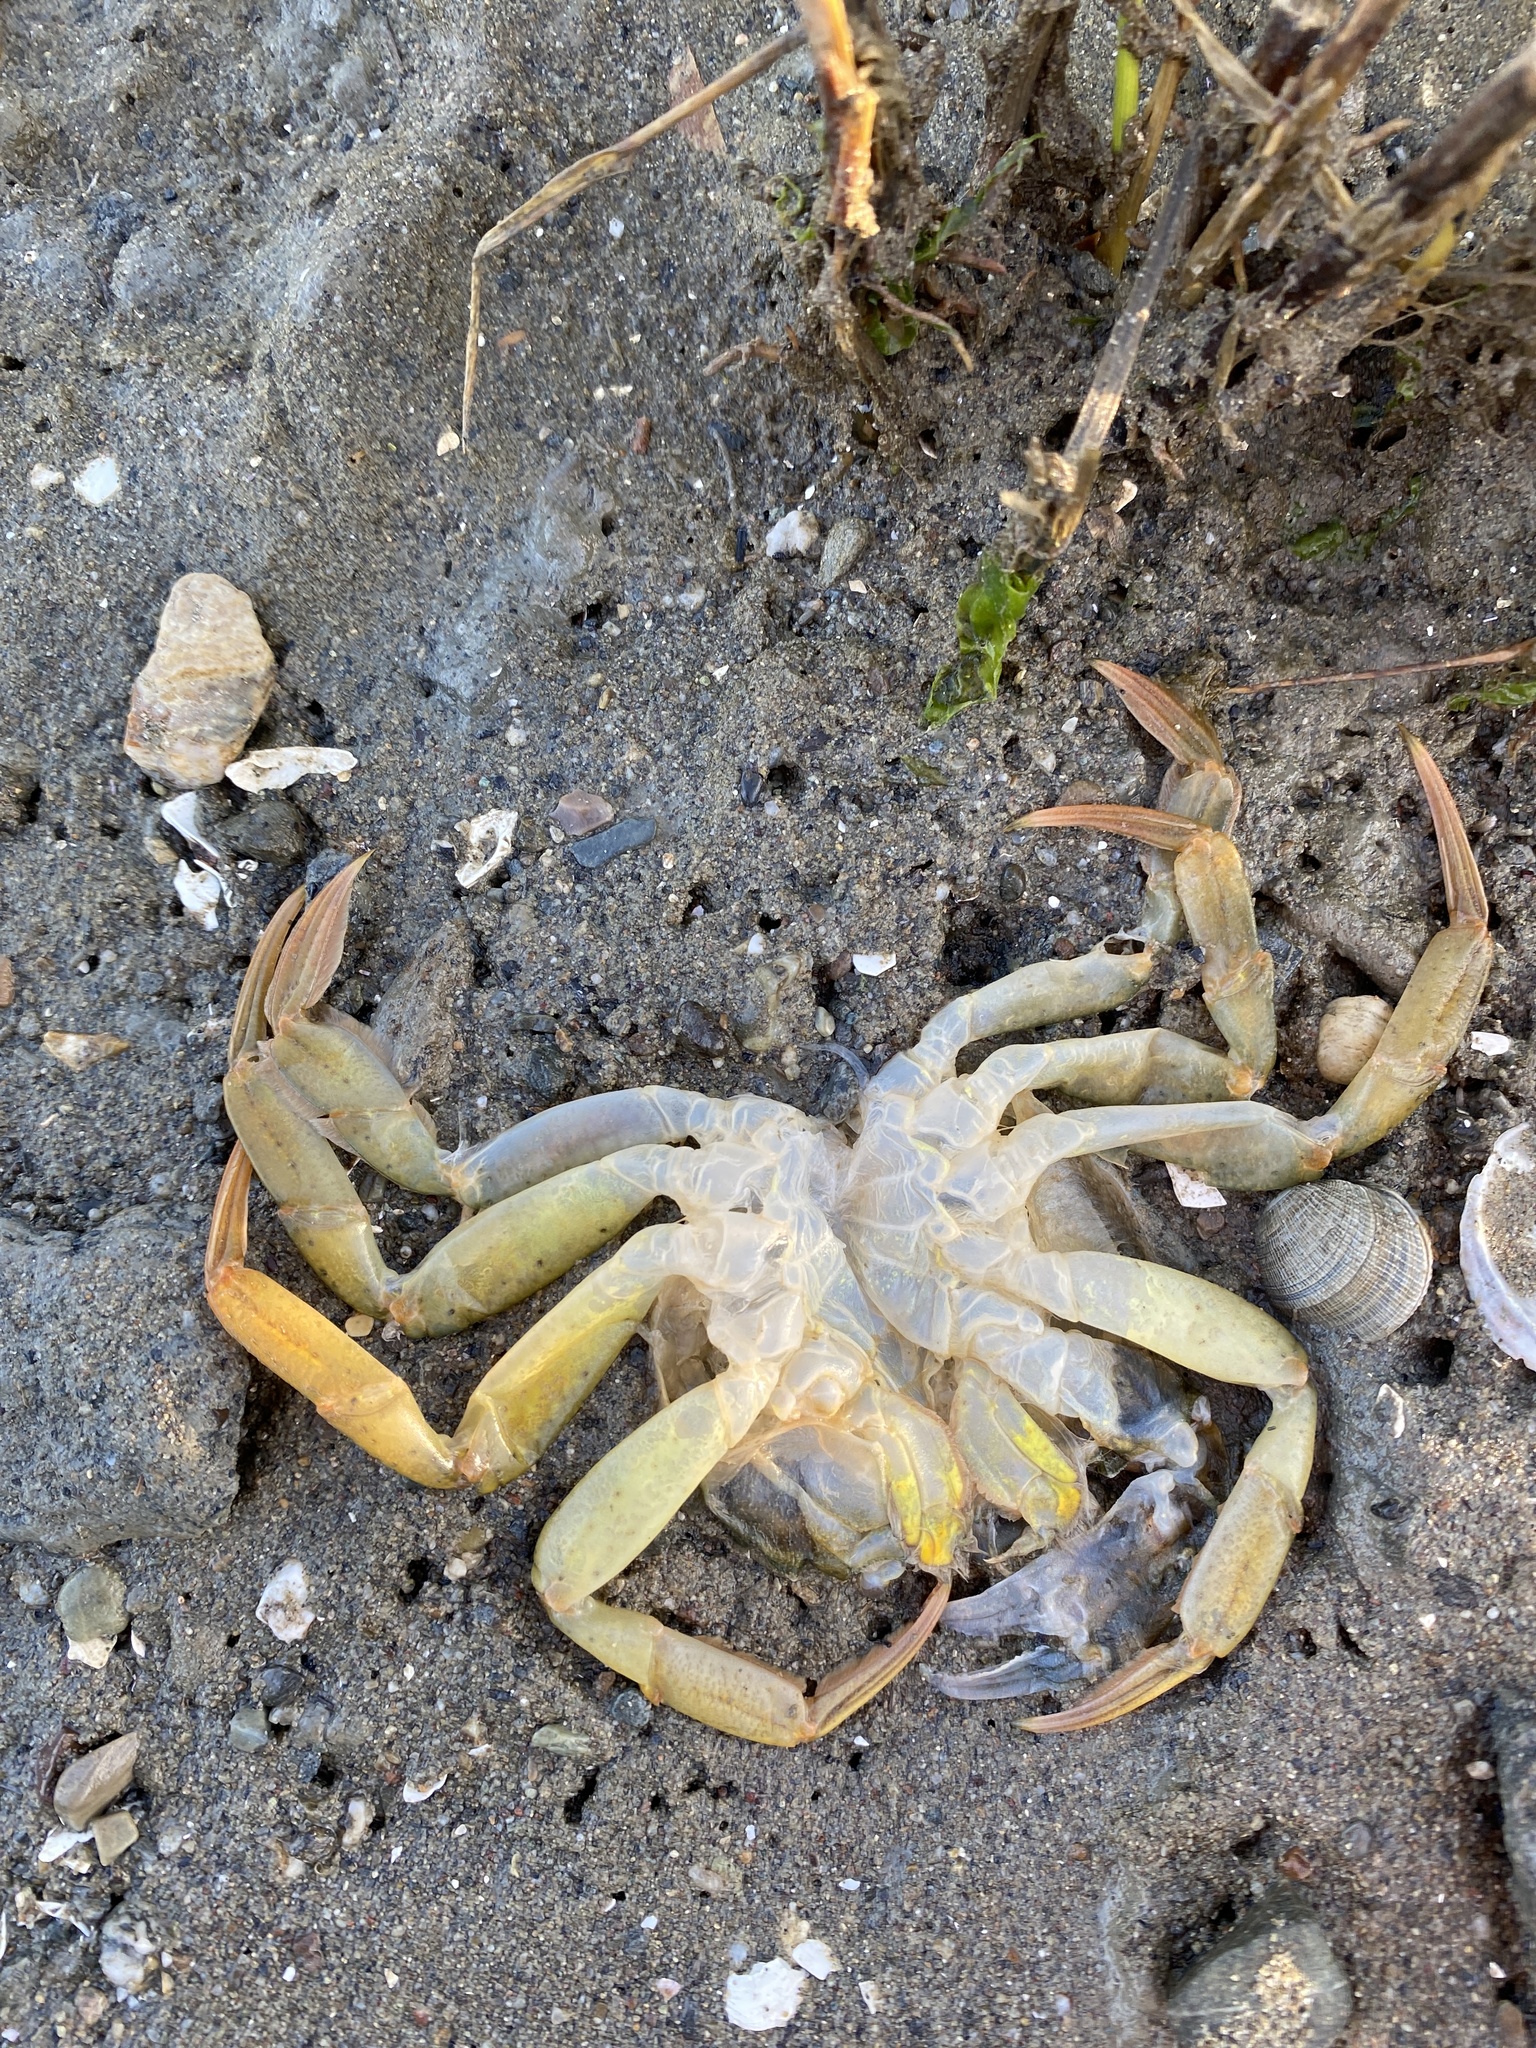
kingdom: Animalia
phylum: Arthropoda
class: Malacostraca
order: Decapoda
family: Carcinidae
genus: Carcinus
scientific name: Carcinus maenas
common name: European green crab
